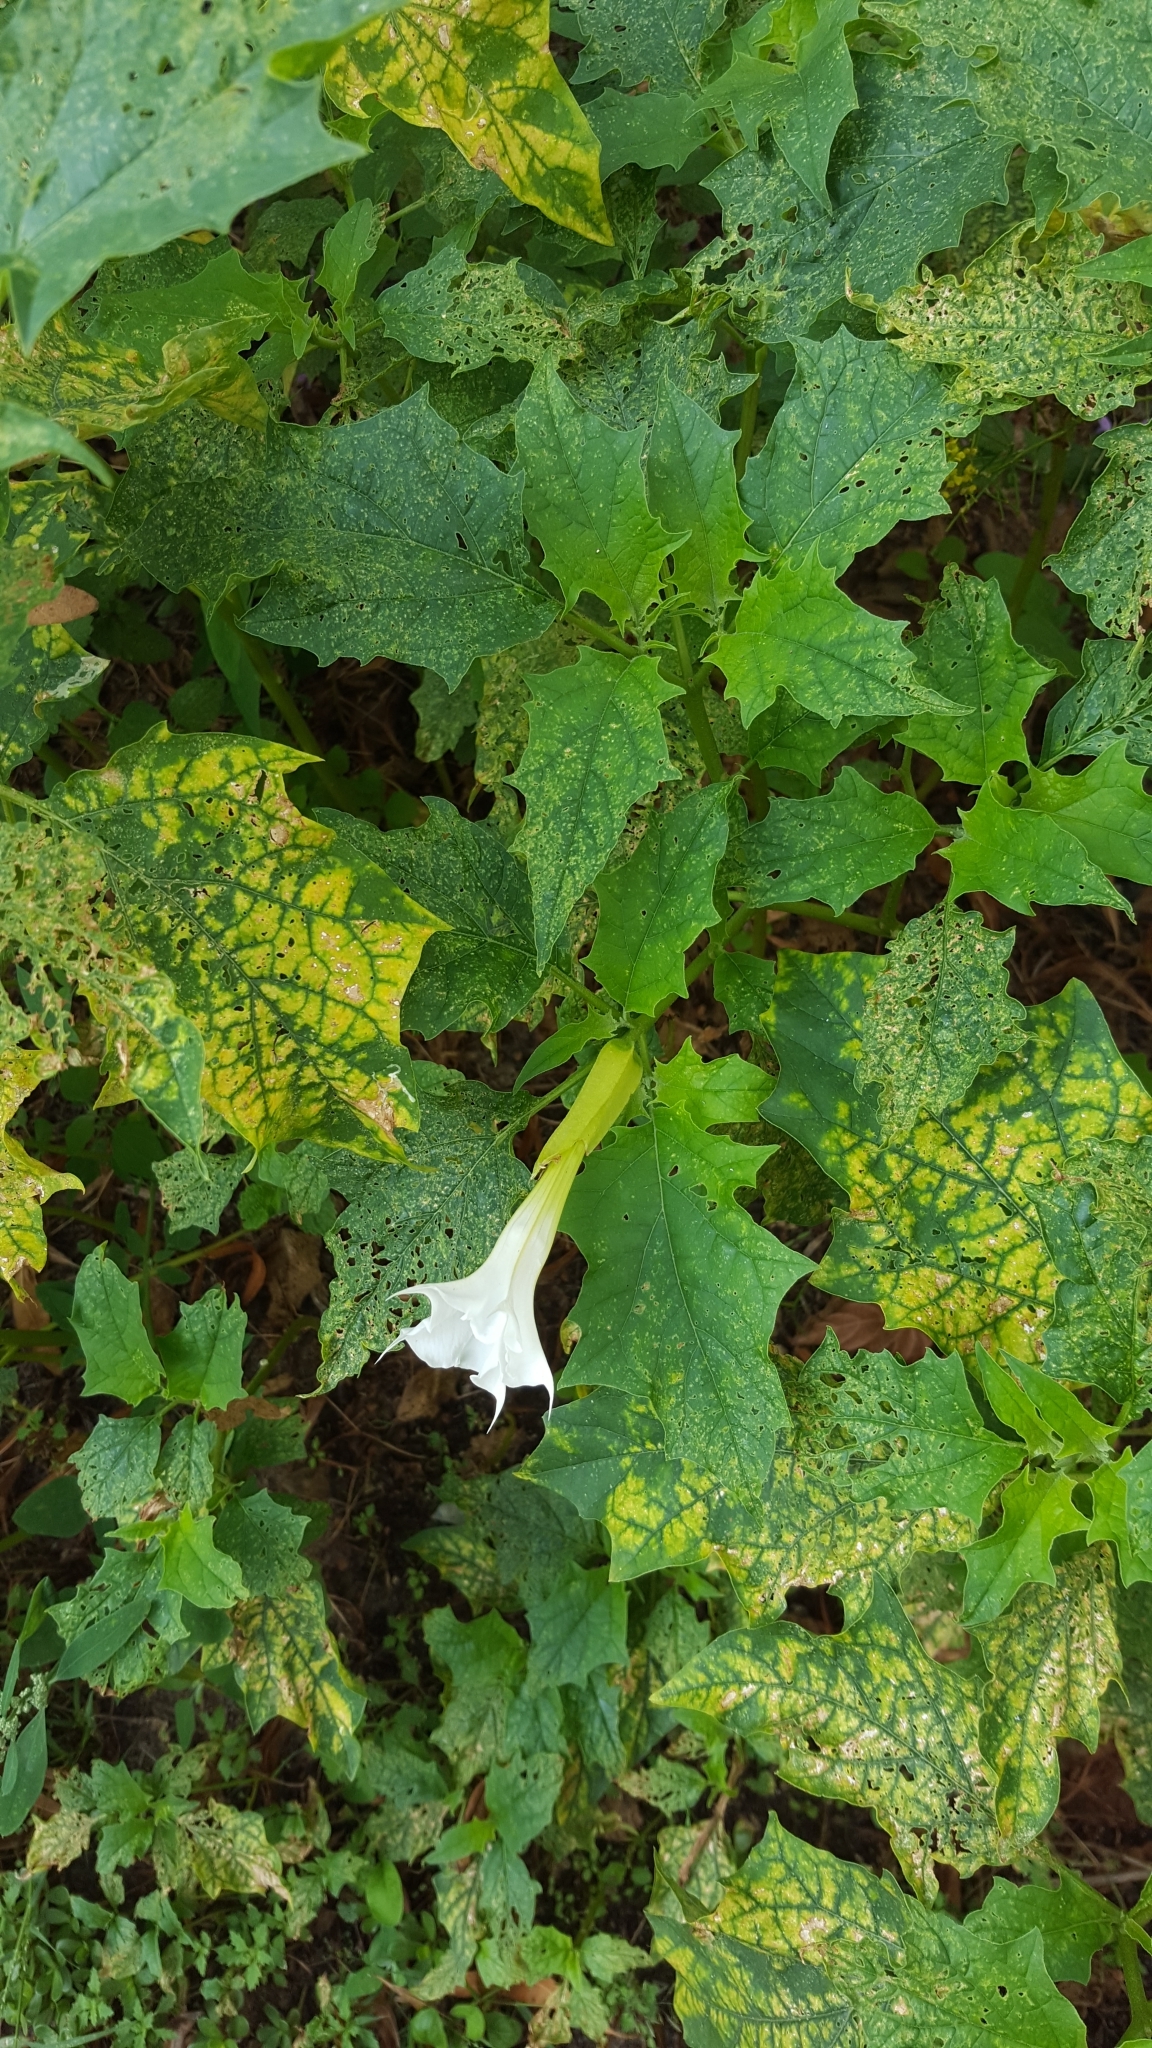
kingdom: Plantae
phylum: Tracheophyta
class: Magnoliopsida
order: Solanales
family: Solanaceae
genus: Datura
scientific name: Datura stramonium
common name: Thorn-apple
